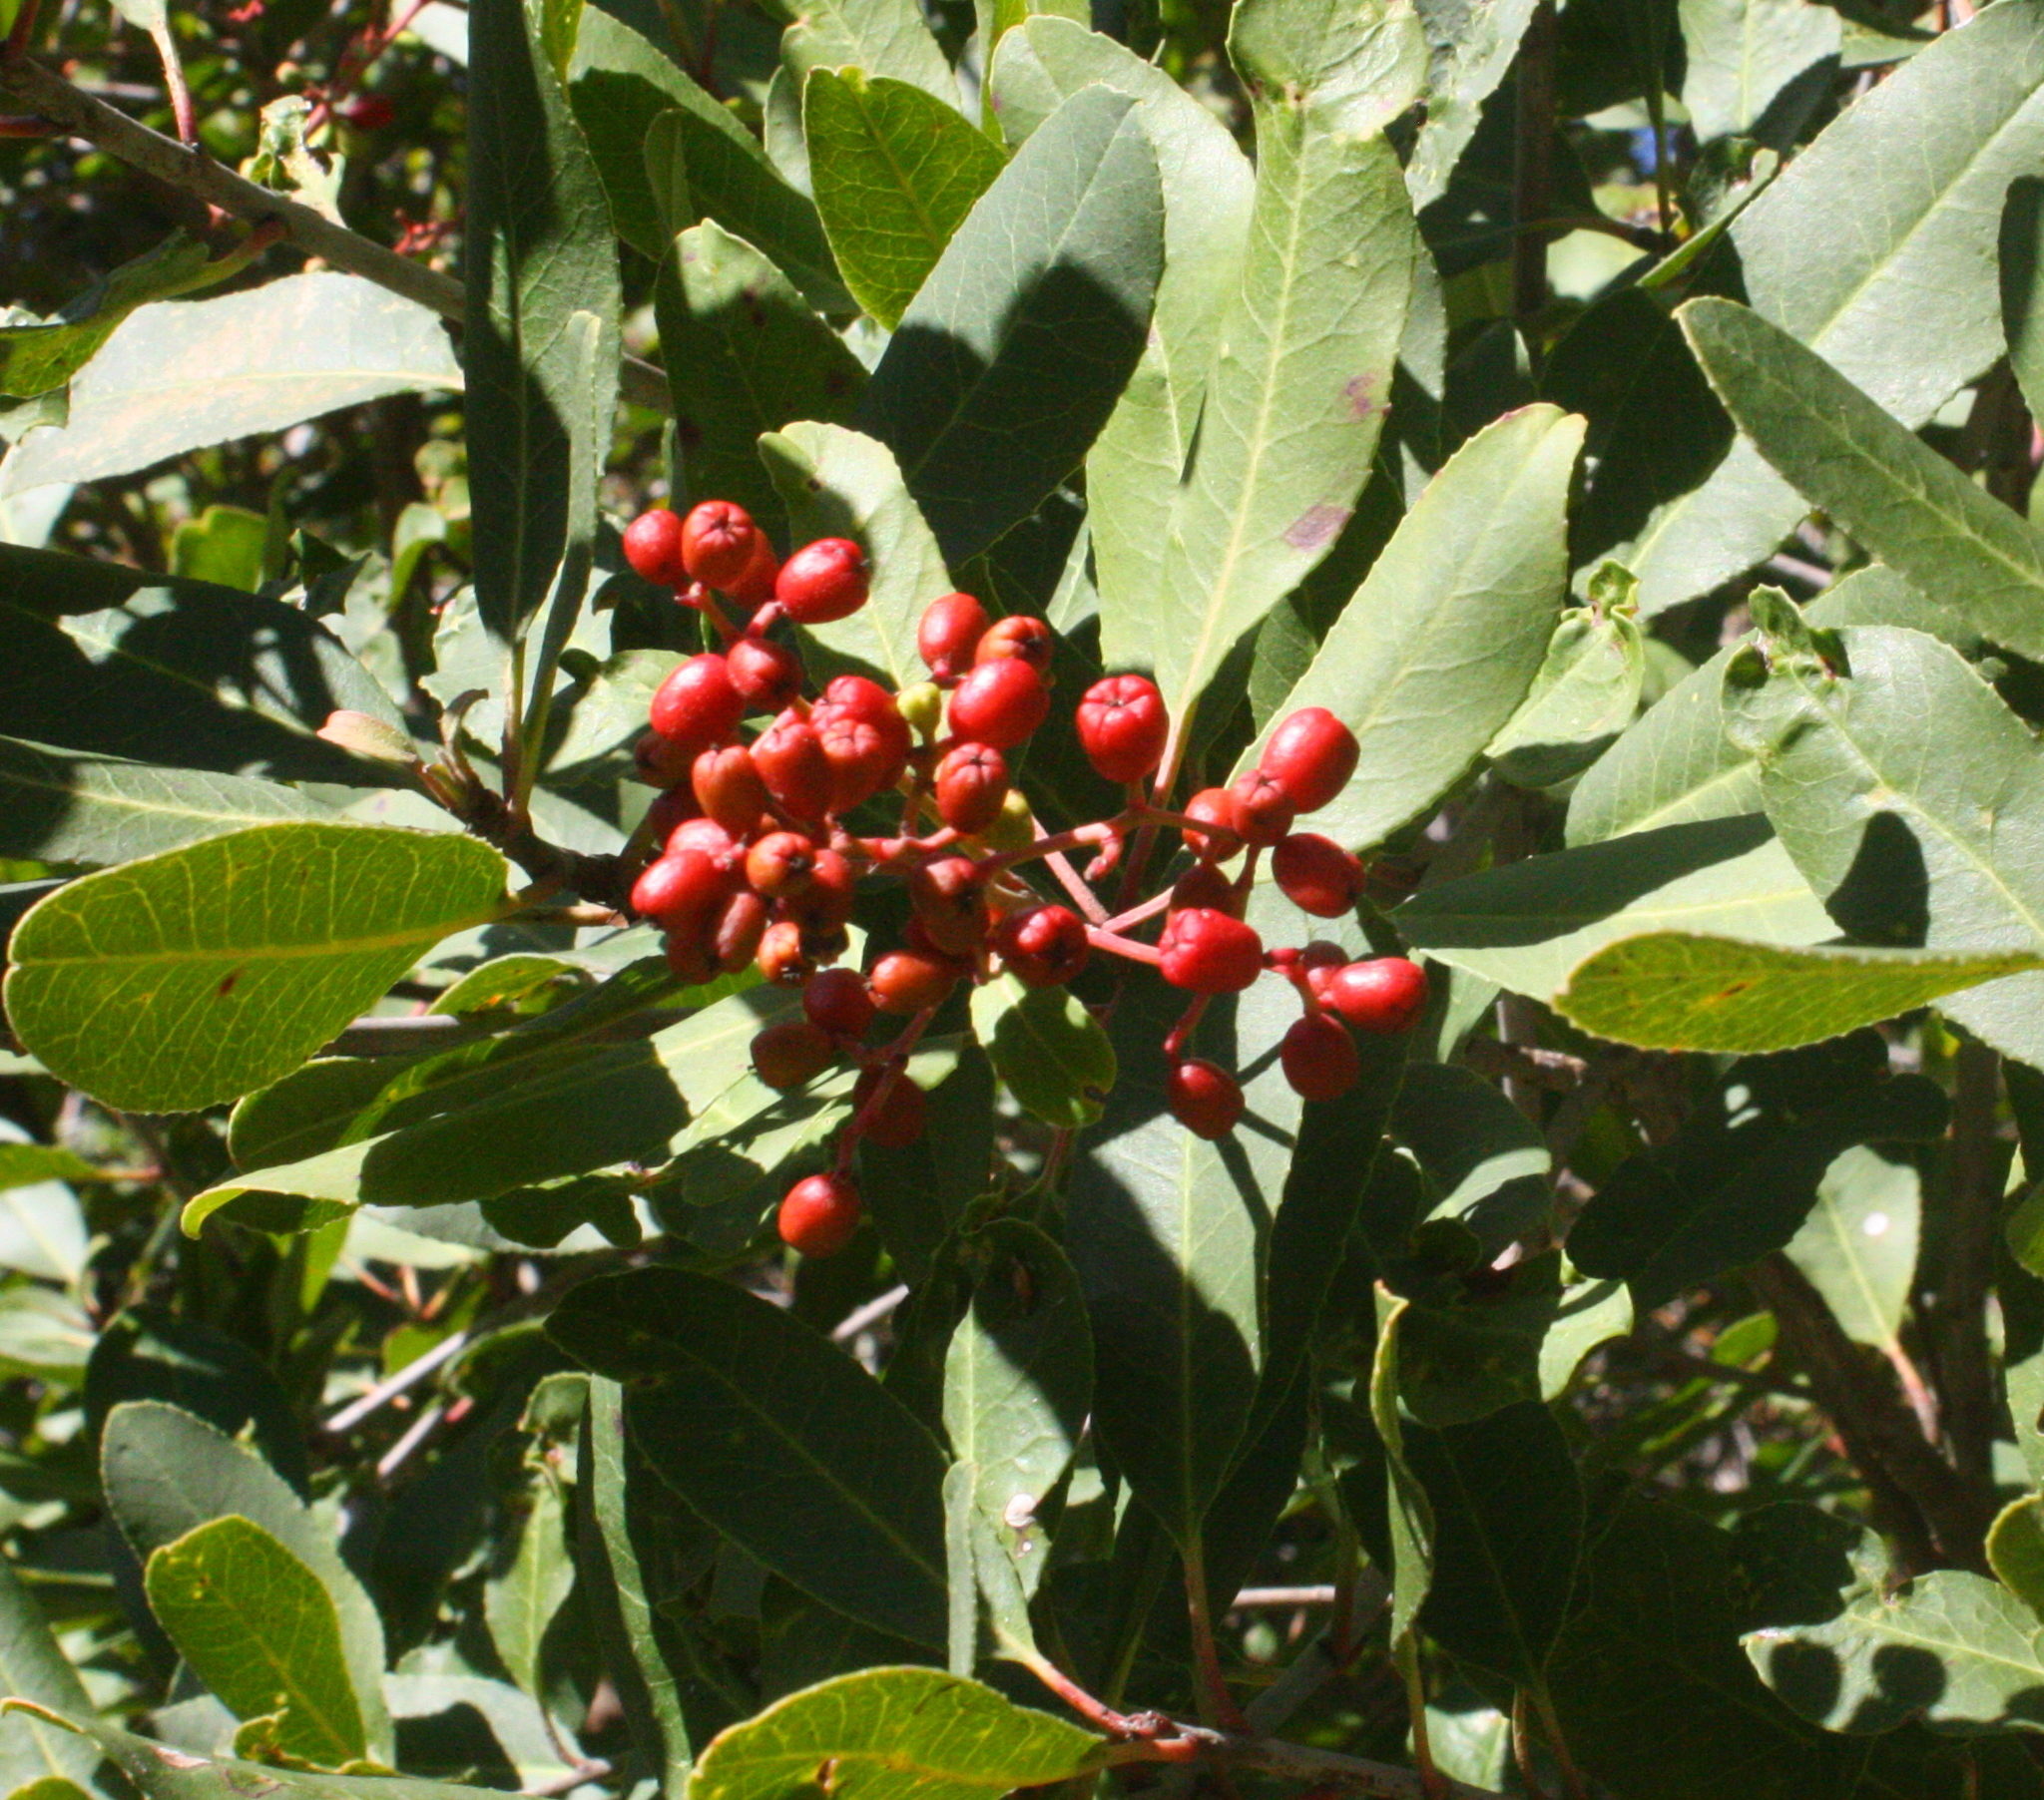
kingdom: Plantae
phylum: Tracheophyta
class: Magnoliopsida
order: Rosales
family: Rosaceae
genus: Heteromeles
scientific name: Heteromeles arbutifolia
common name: California-holly
